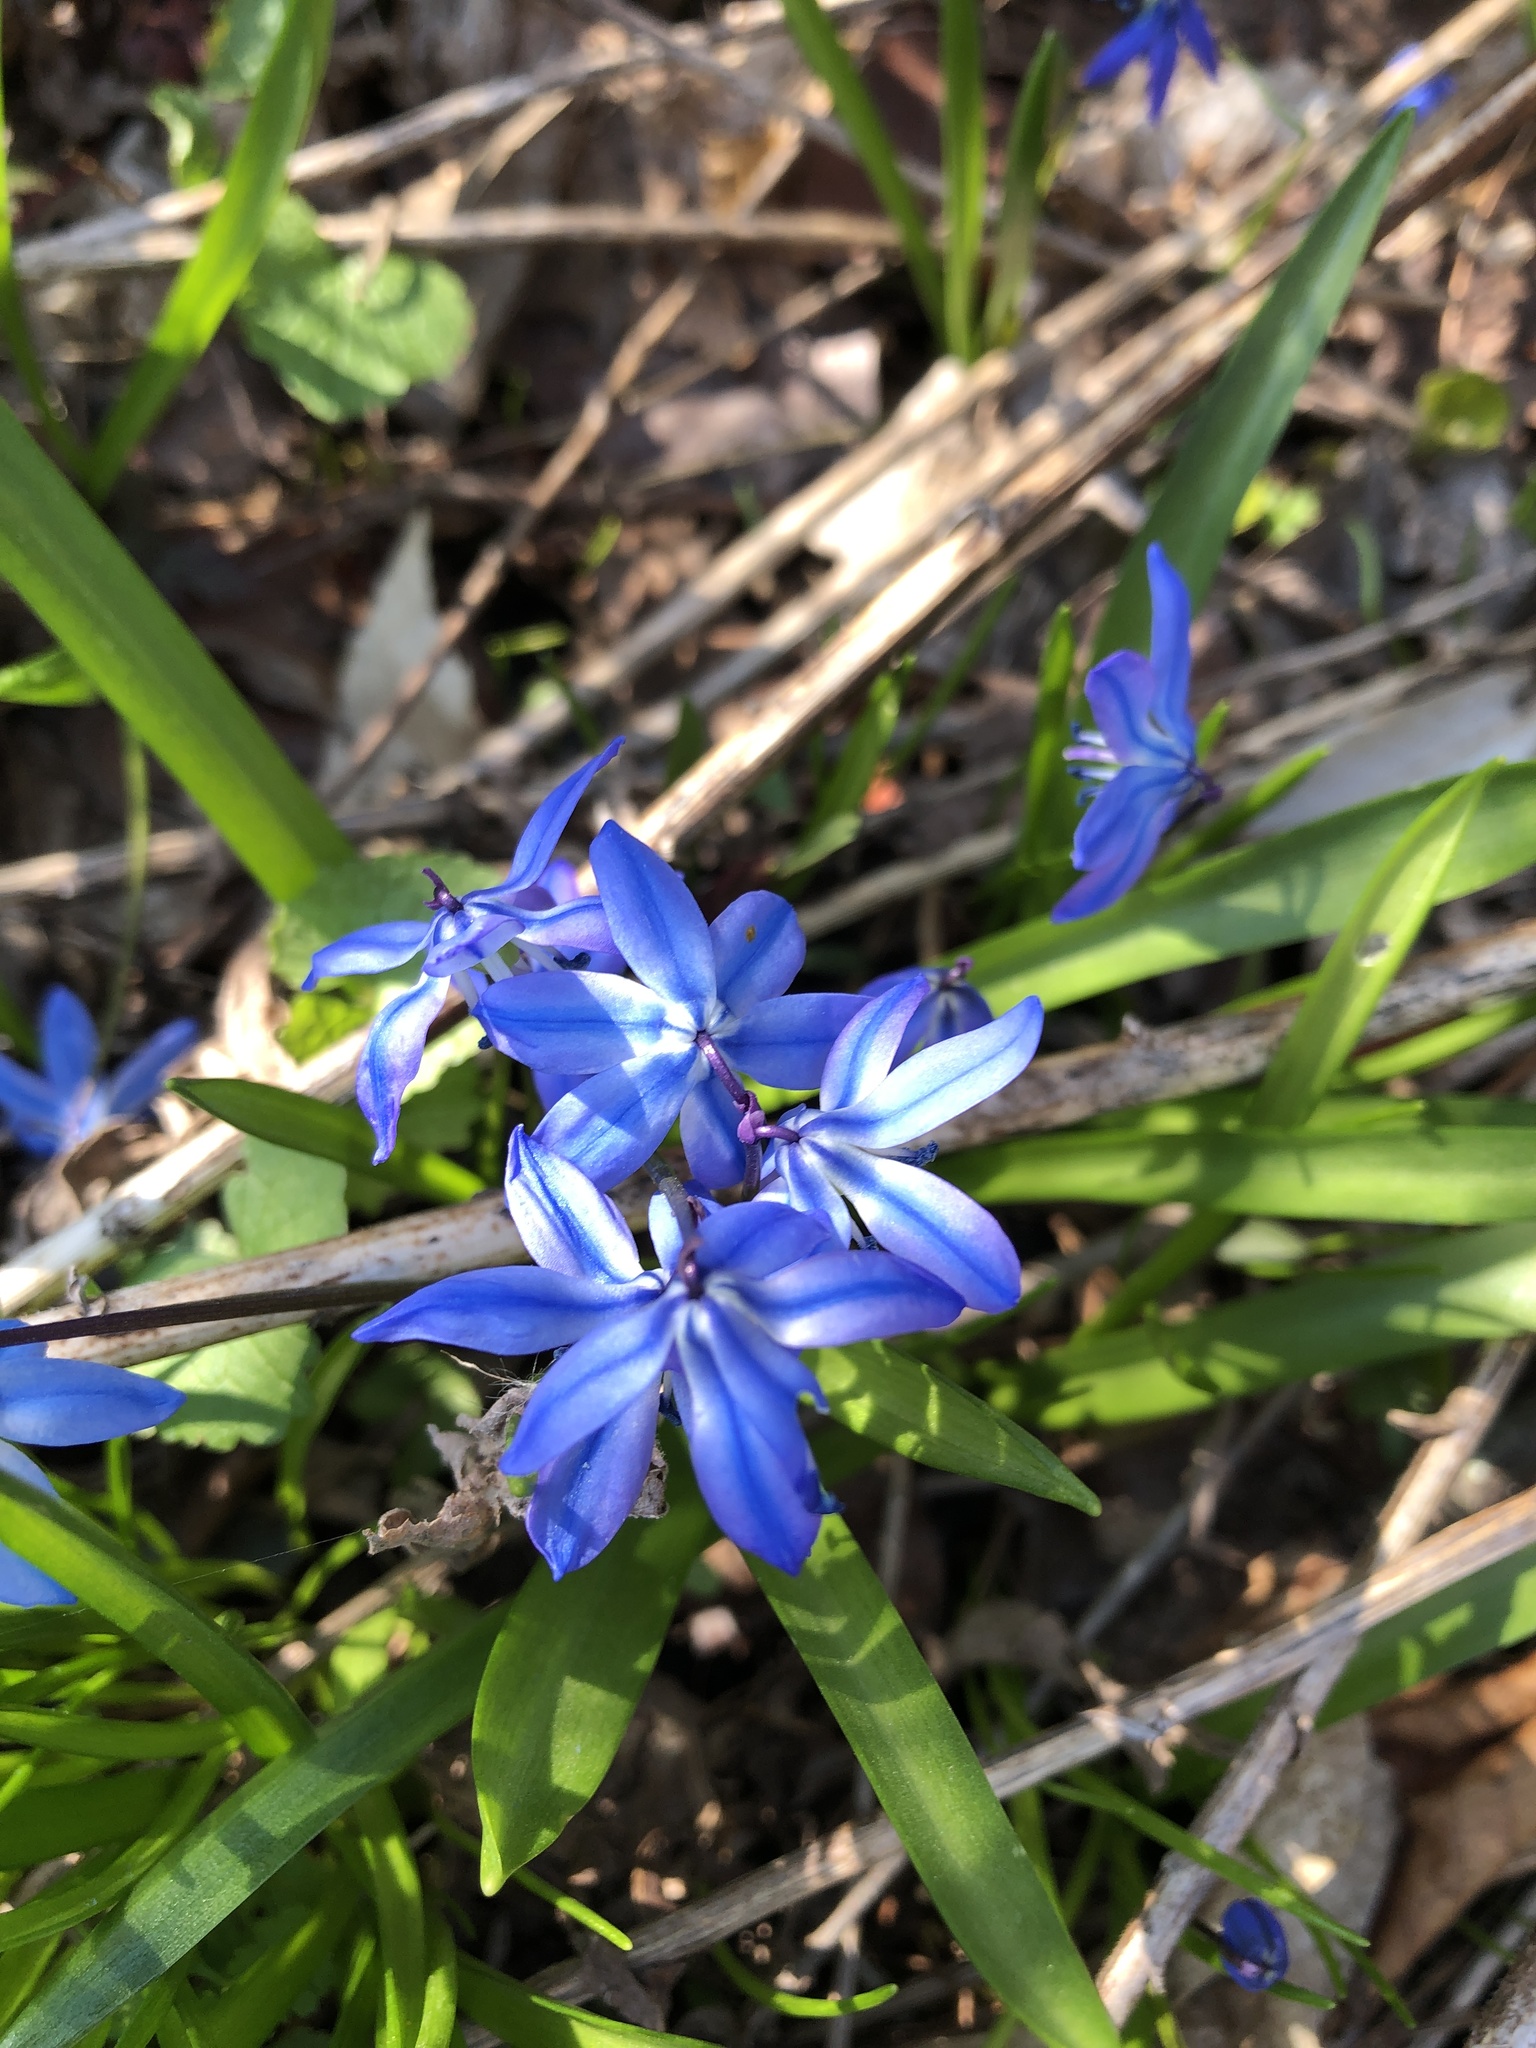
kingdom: Plantae
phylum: Tracheophyta
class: Liliopsida
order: Asparagales
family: Asparagaceae
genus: Scilla
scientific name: Scilla siberica
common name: Siberian squill
